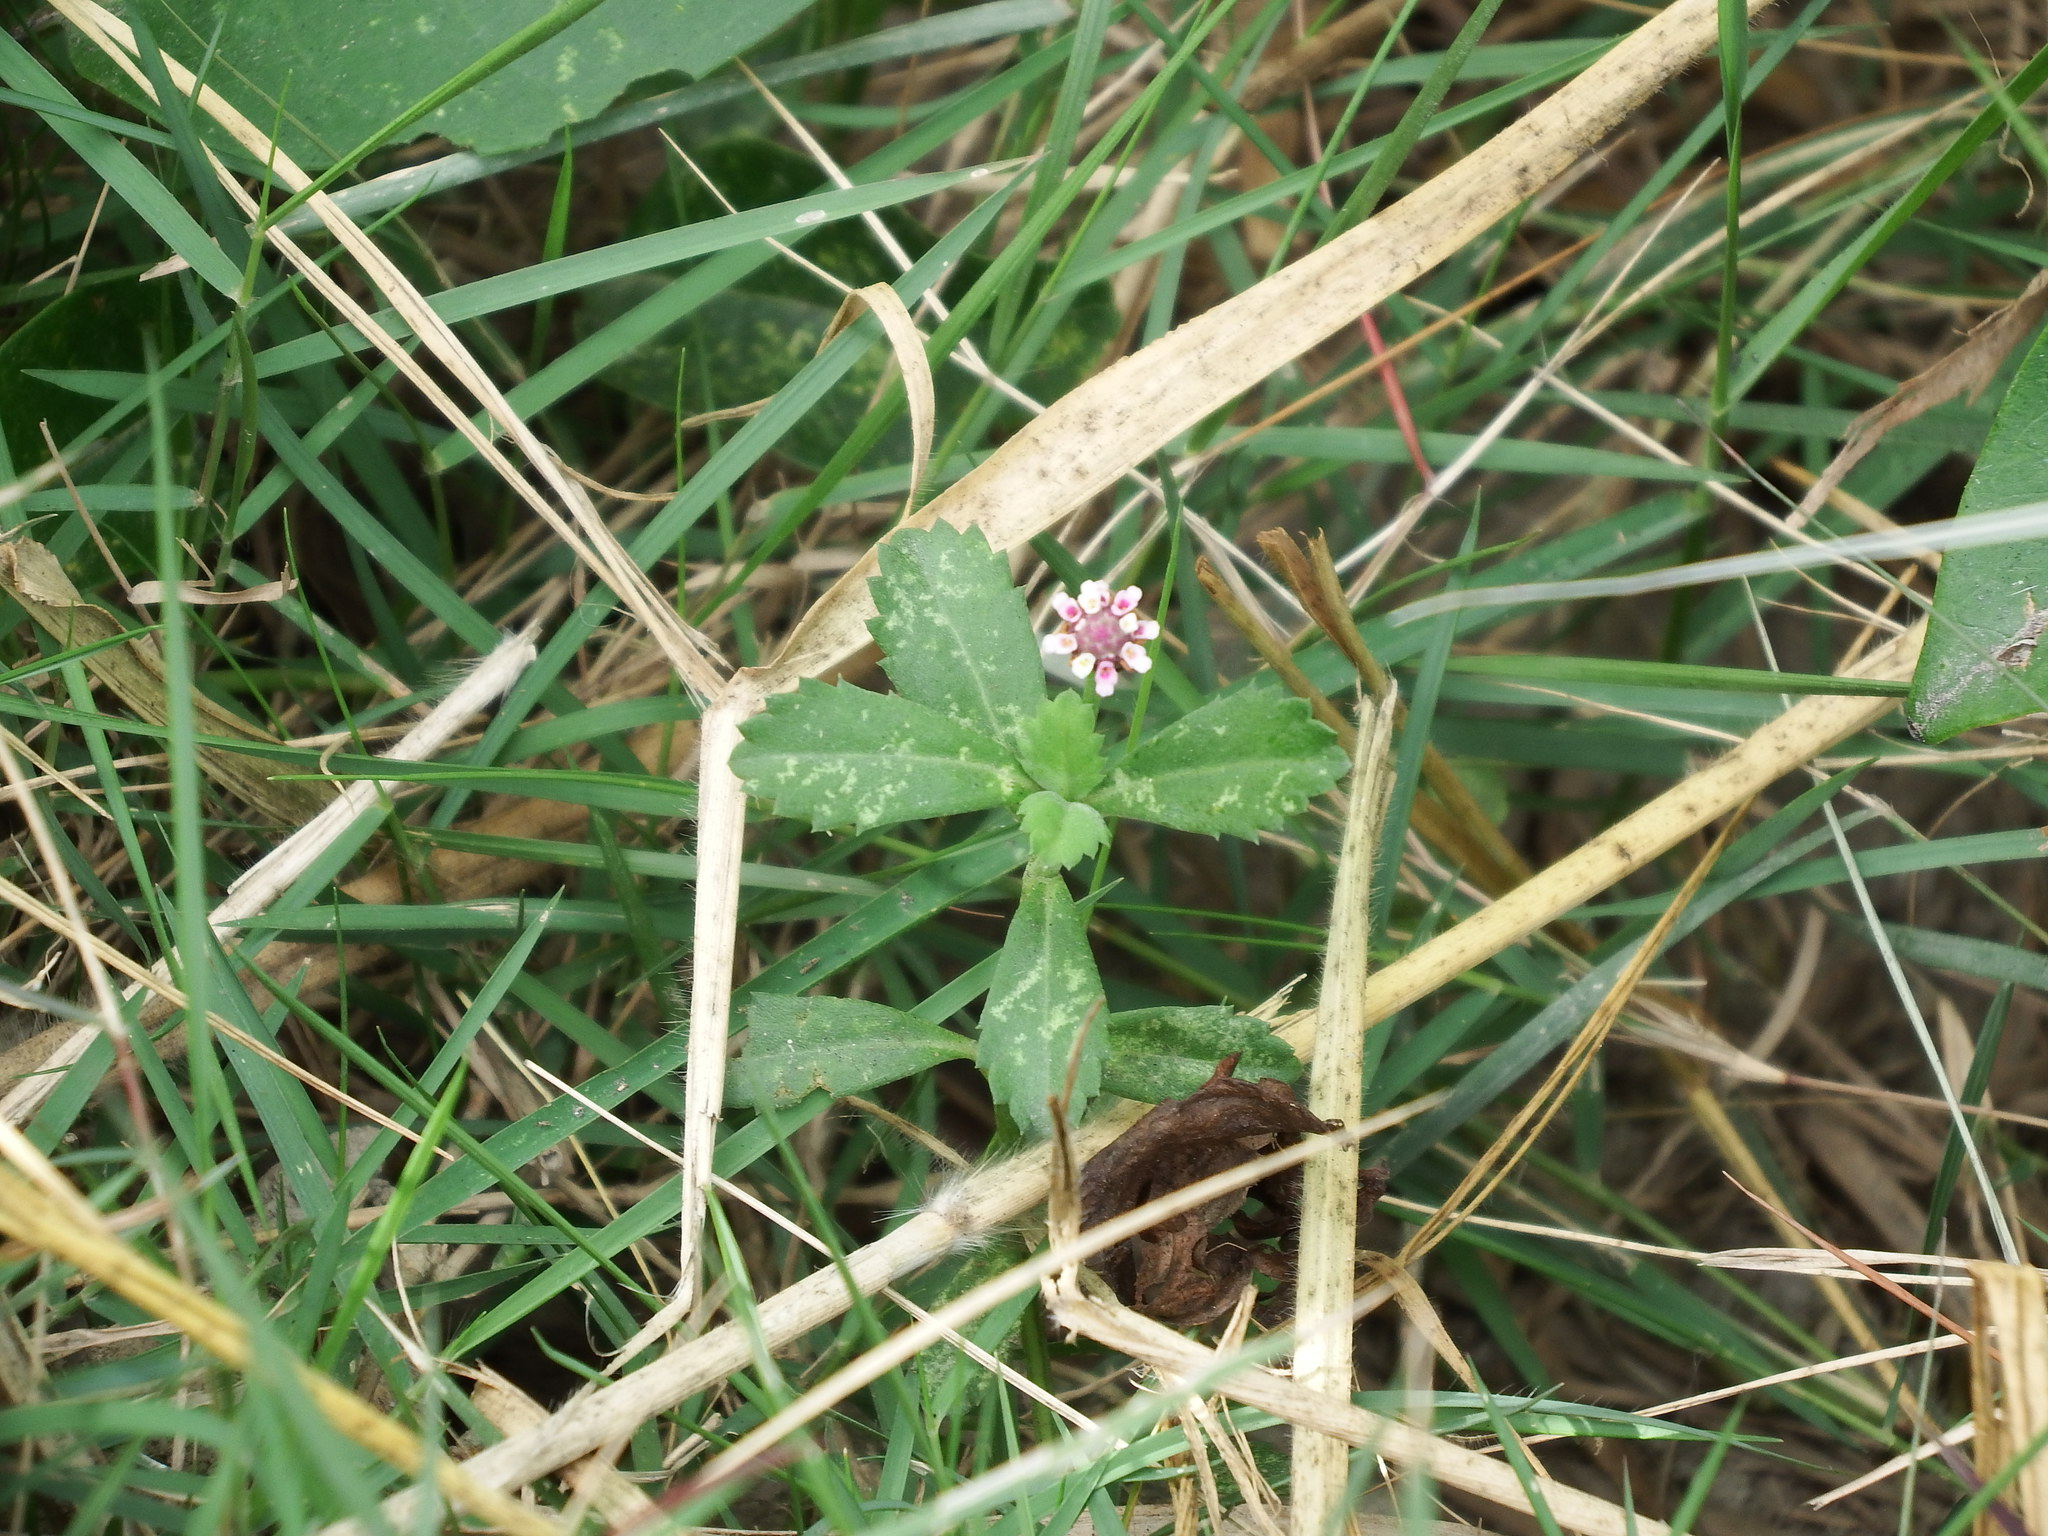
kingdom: Plantae
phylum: Tracheophyta
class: Magnoliopsida
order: Lamiales
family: Verbenaceae
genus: Phyla
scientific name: Phyla nodiflora
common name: Frogfruit
